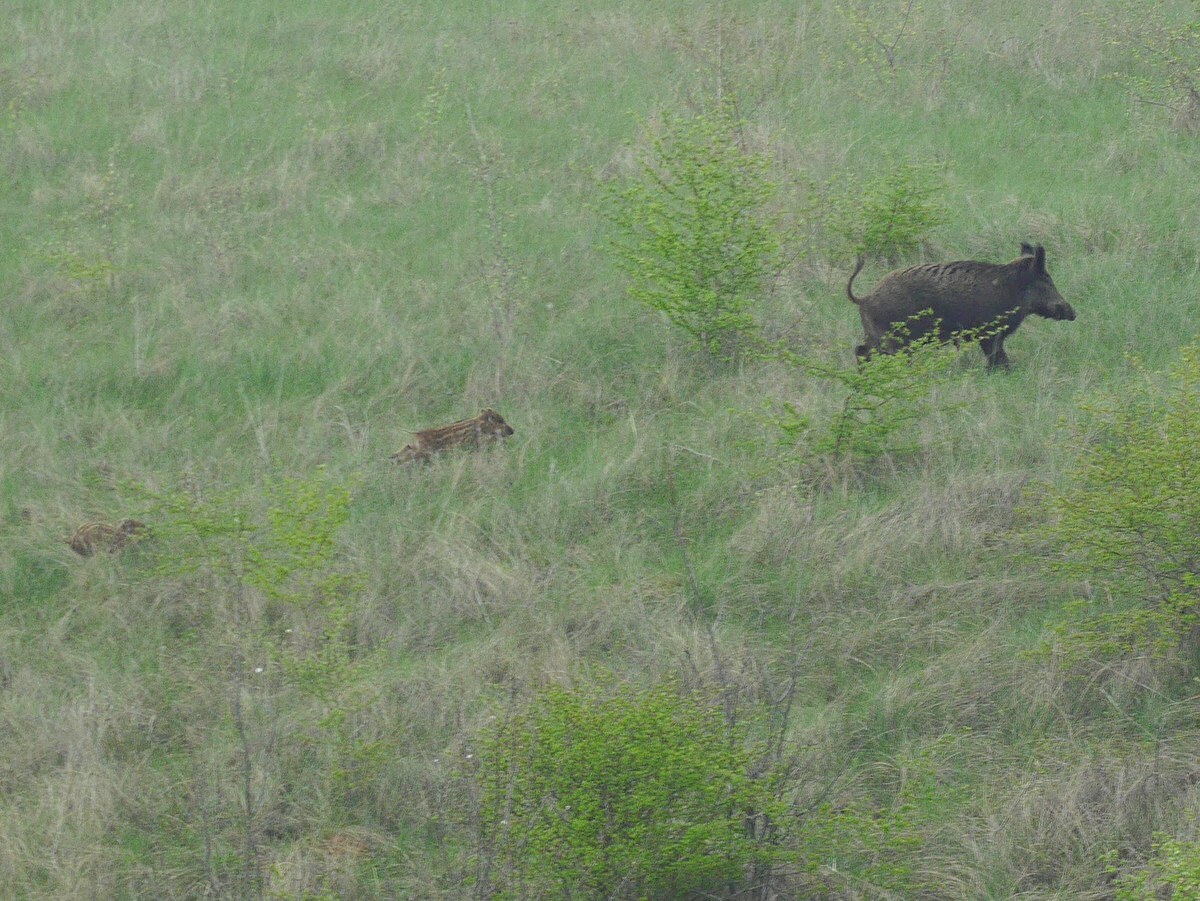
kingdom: Animalia
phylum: Chordata
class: Mammalia
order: Artiodactyla
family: Suidae
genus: Sus
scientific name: Sus scrofa
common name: Wild boar
